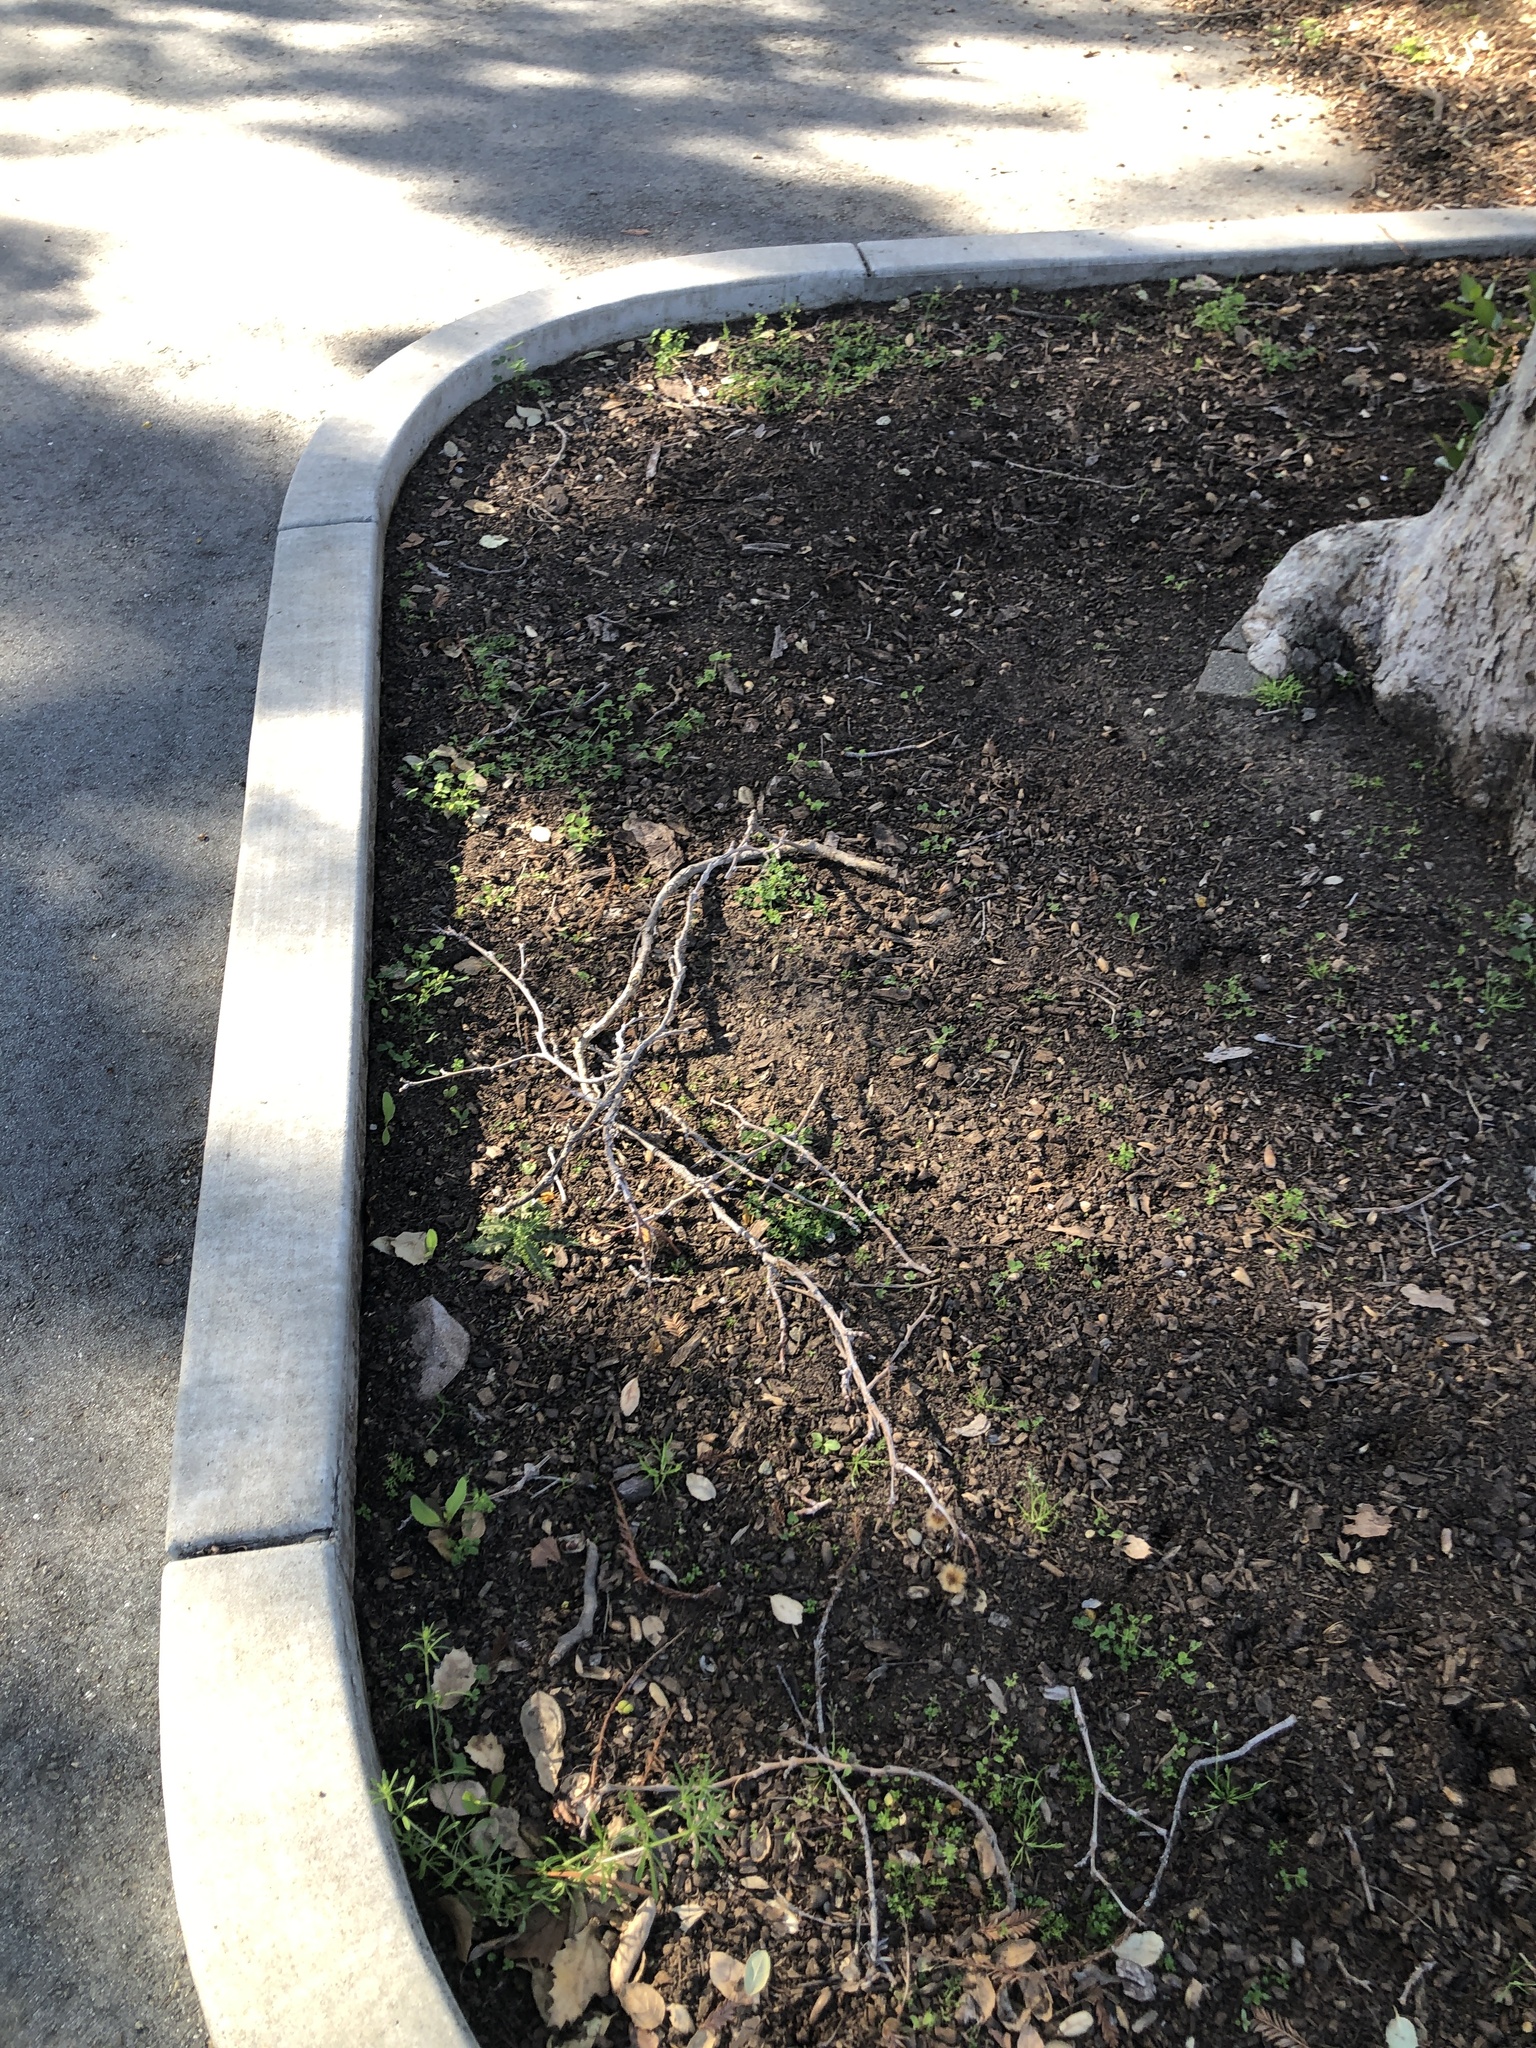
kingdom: Fungi
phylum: Ascomycota
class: Pezizomycetes
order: Pezizales
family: Helvellaceae
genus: Helvella
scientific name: Helvella dryophila
